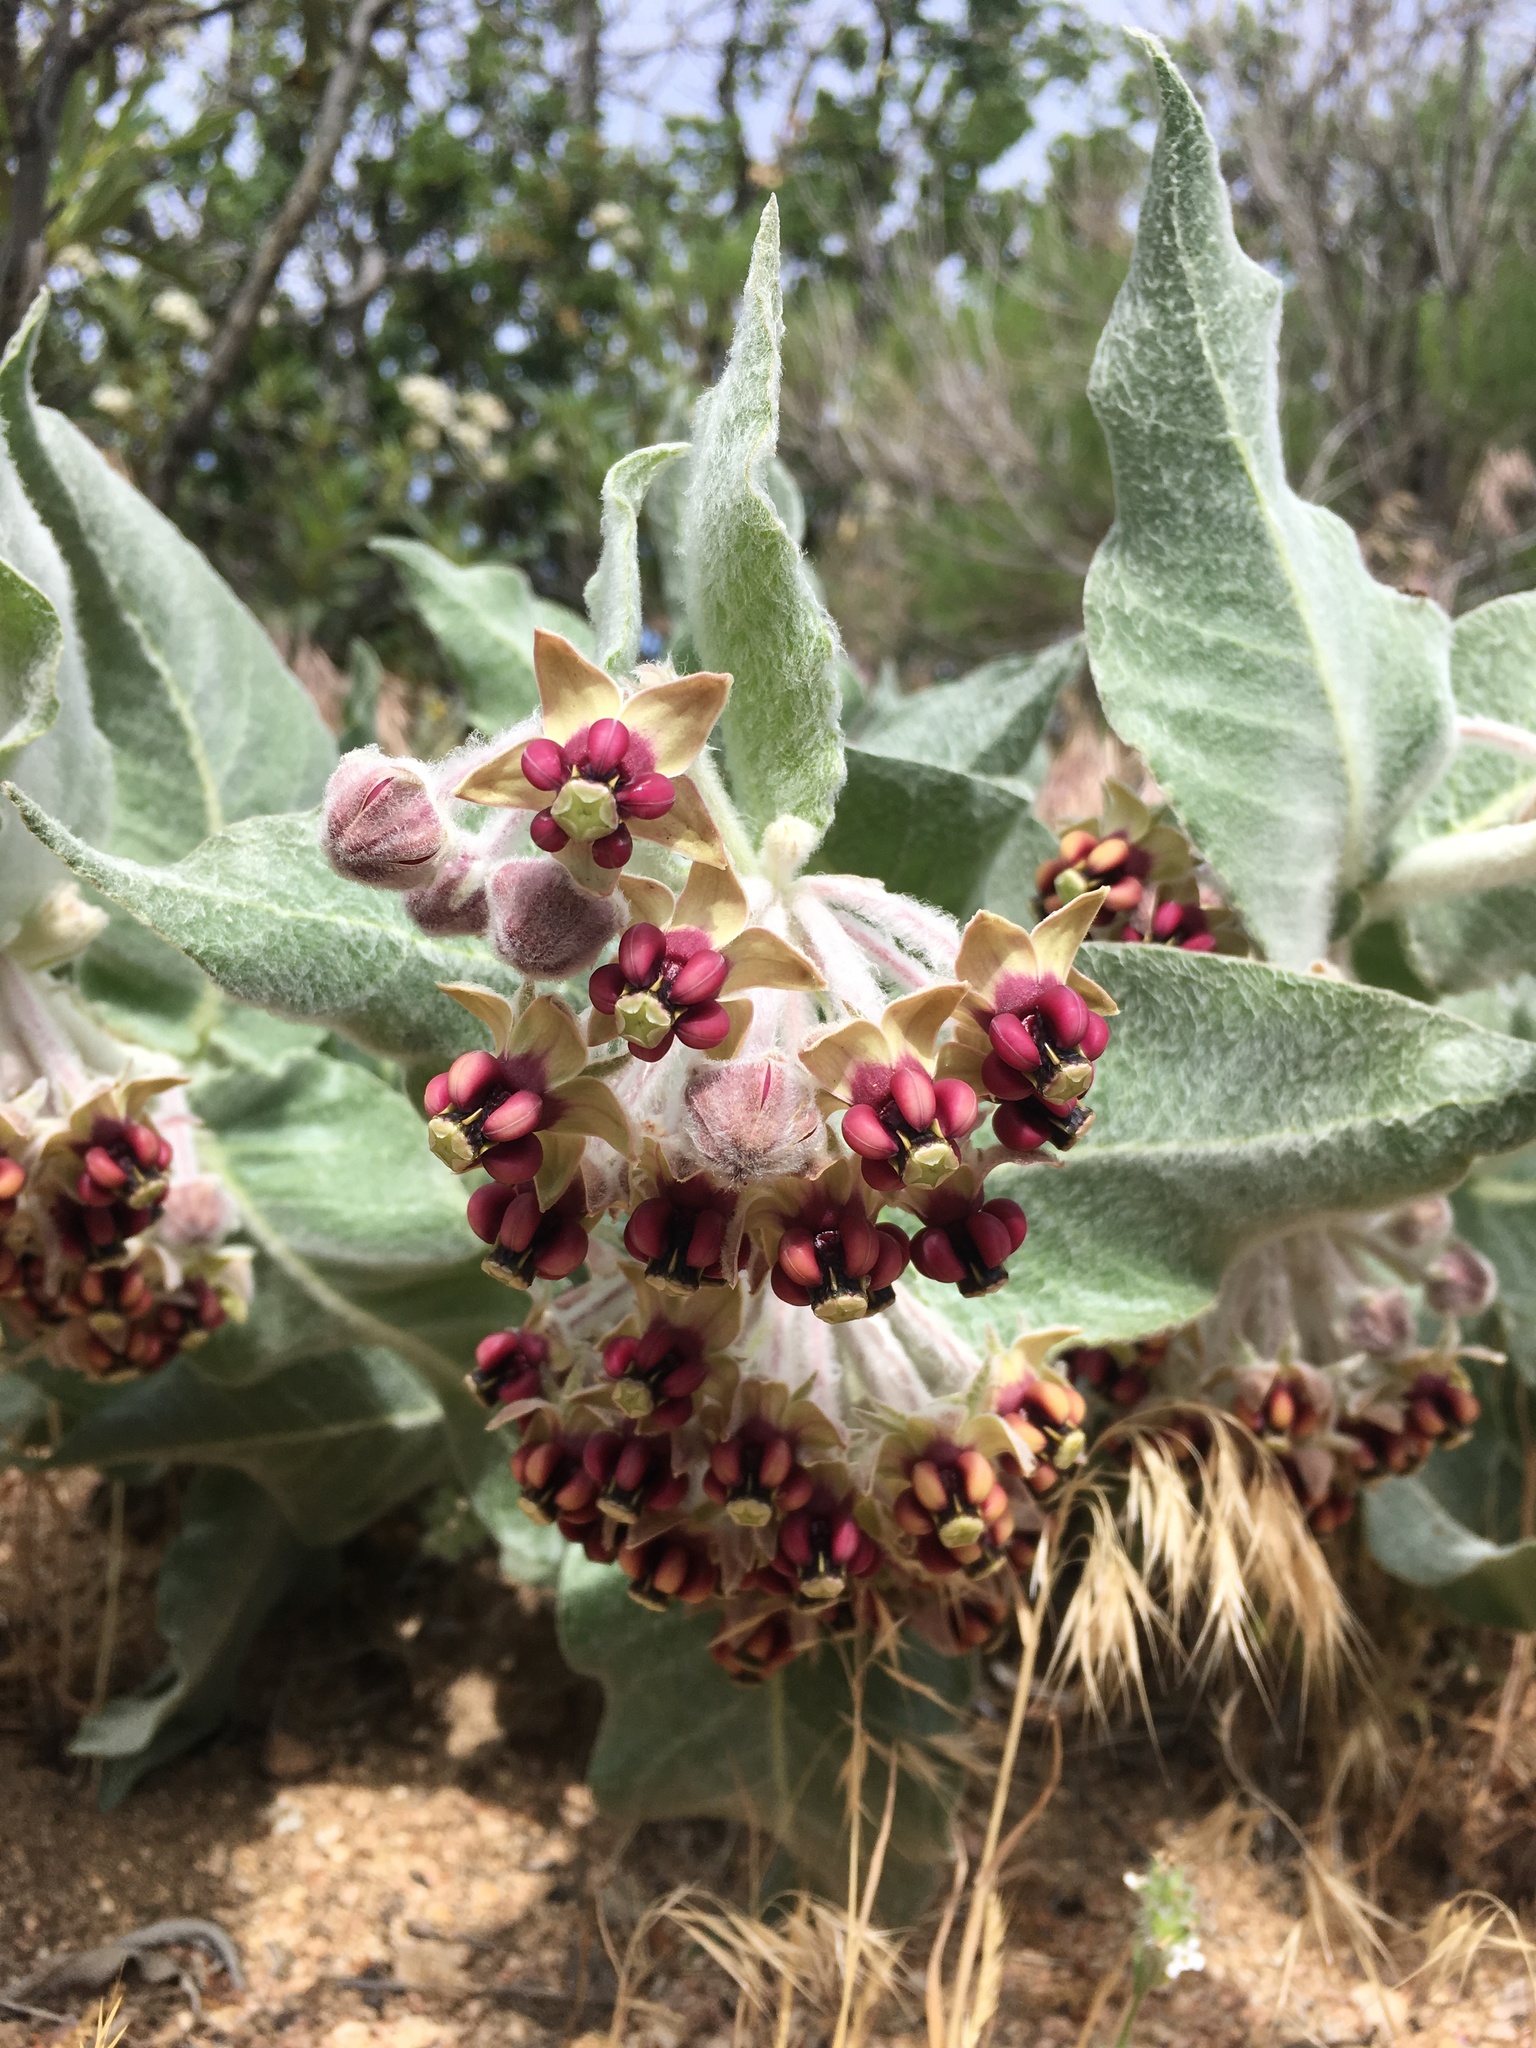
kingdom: Plantae
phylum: Tracheophyta
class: Magnoliopsida
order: Gentianales
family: Apocynaceae
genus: Asclepias
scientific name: Asclepias californica
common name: California milkweed
